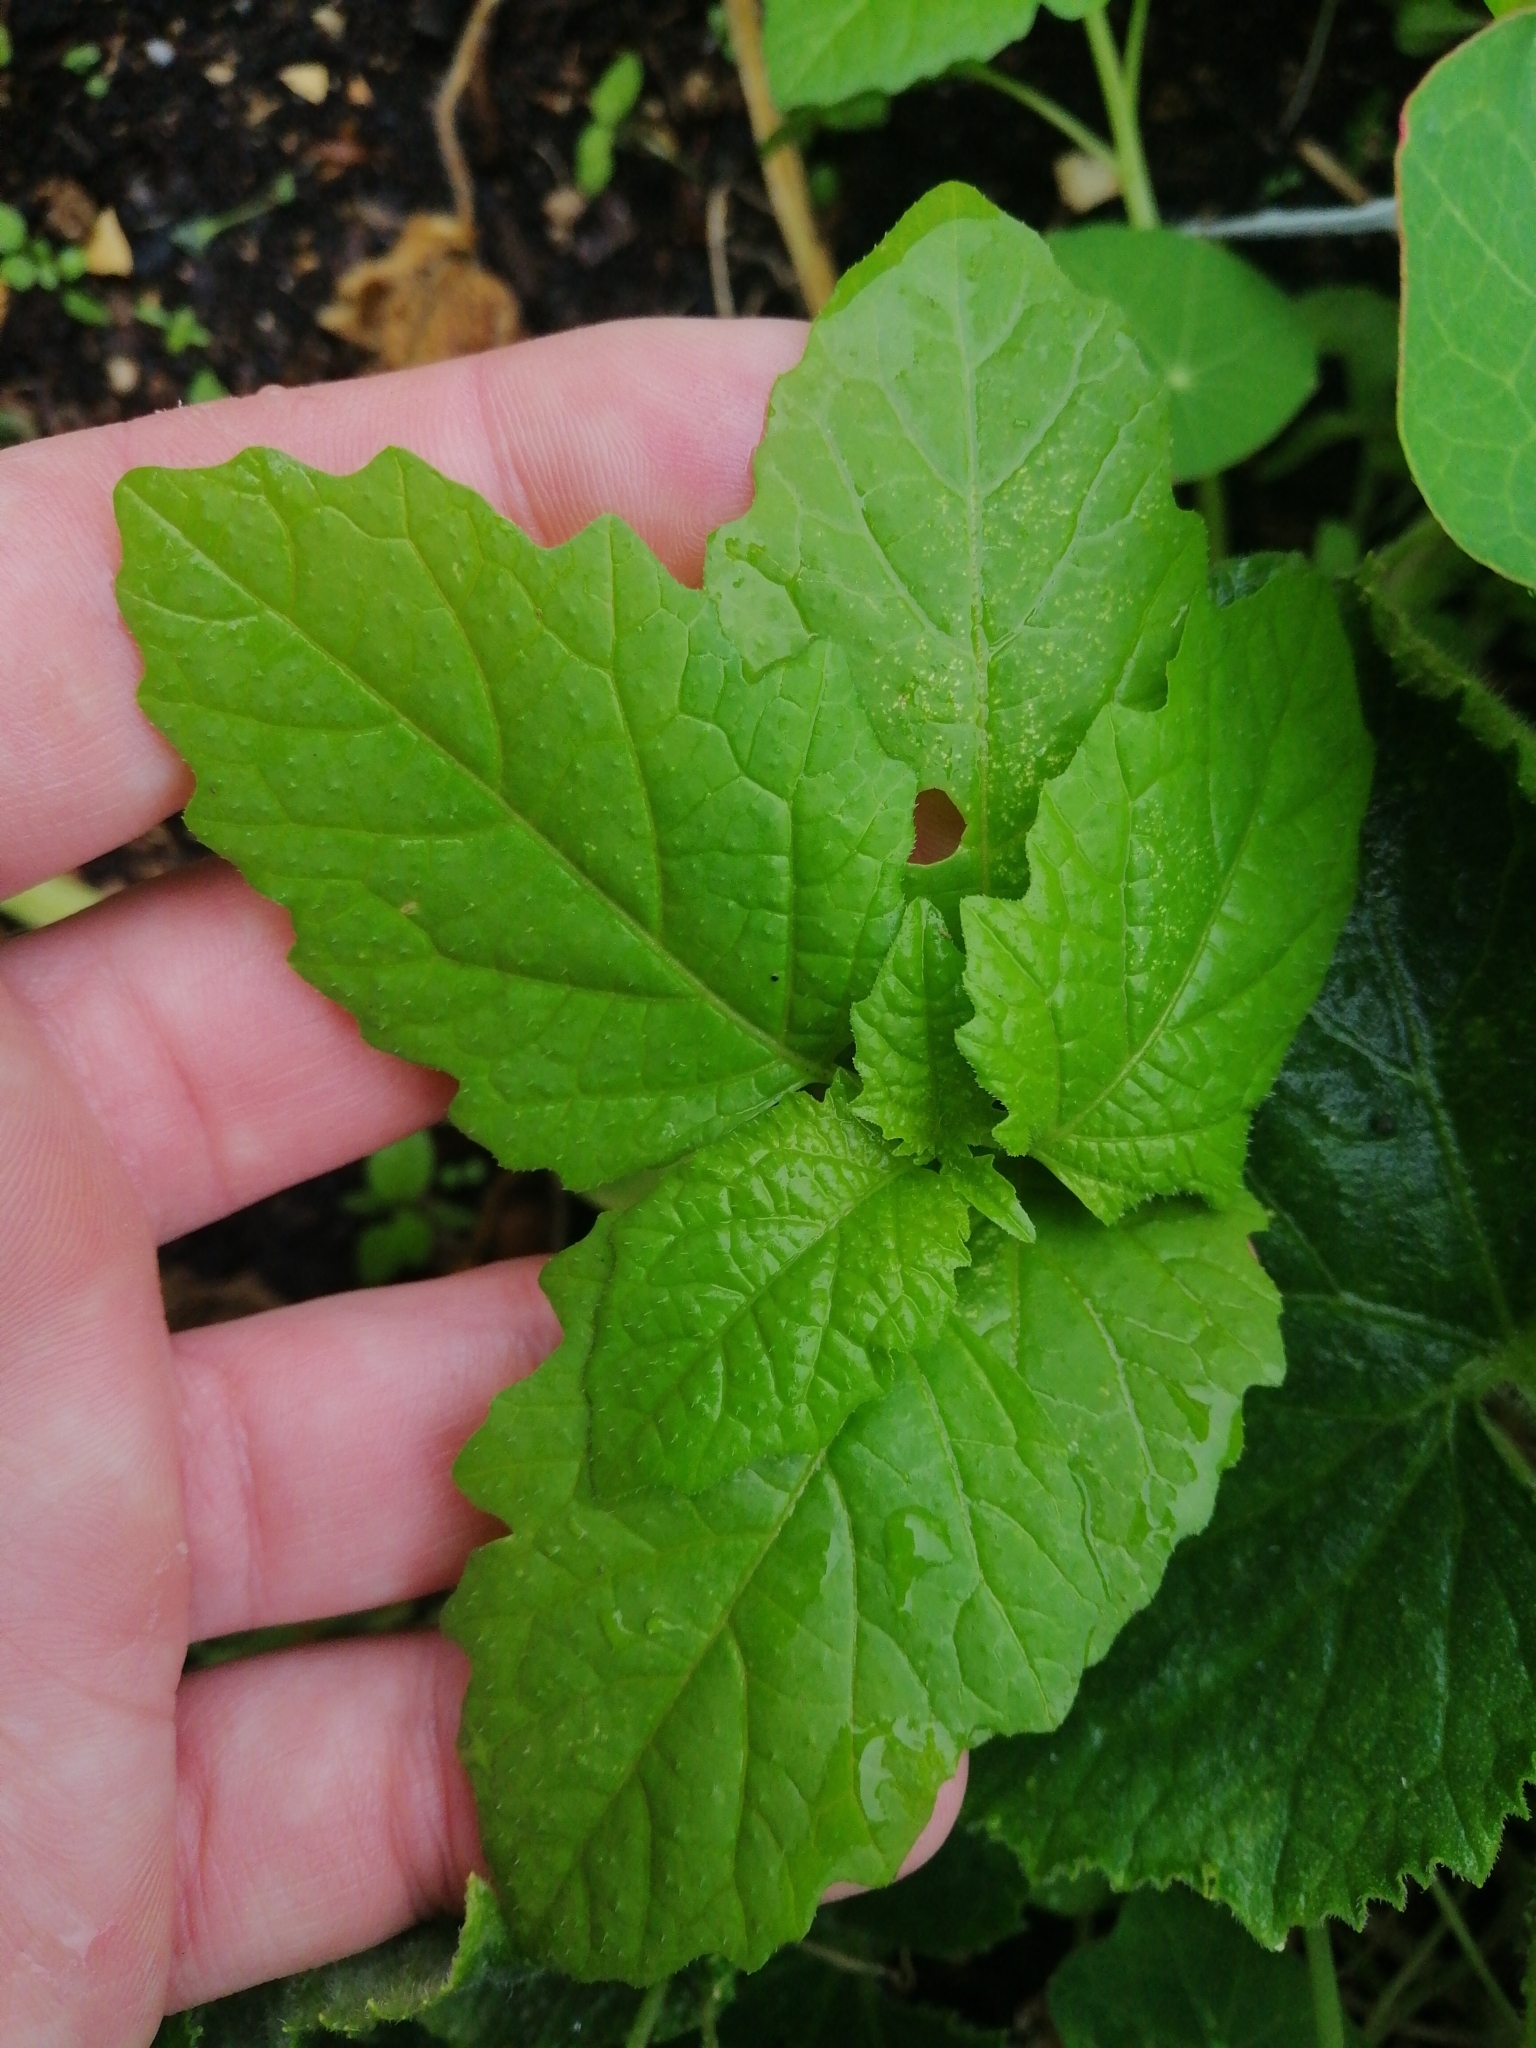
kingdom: Plantae
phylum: Tracheophyta
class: Magnoliopsida
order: Solanales
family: Solanaceae
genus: Nicandra
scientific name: Nicandra physalodes
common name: Apple-of-peru
